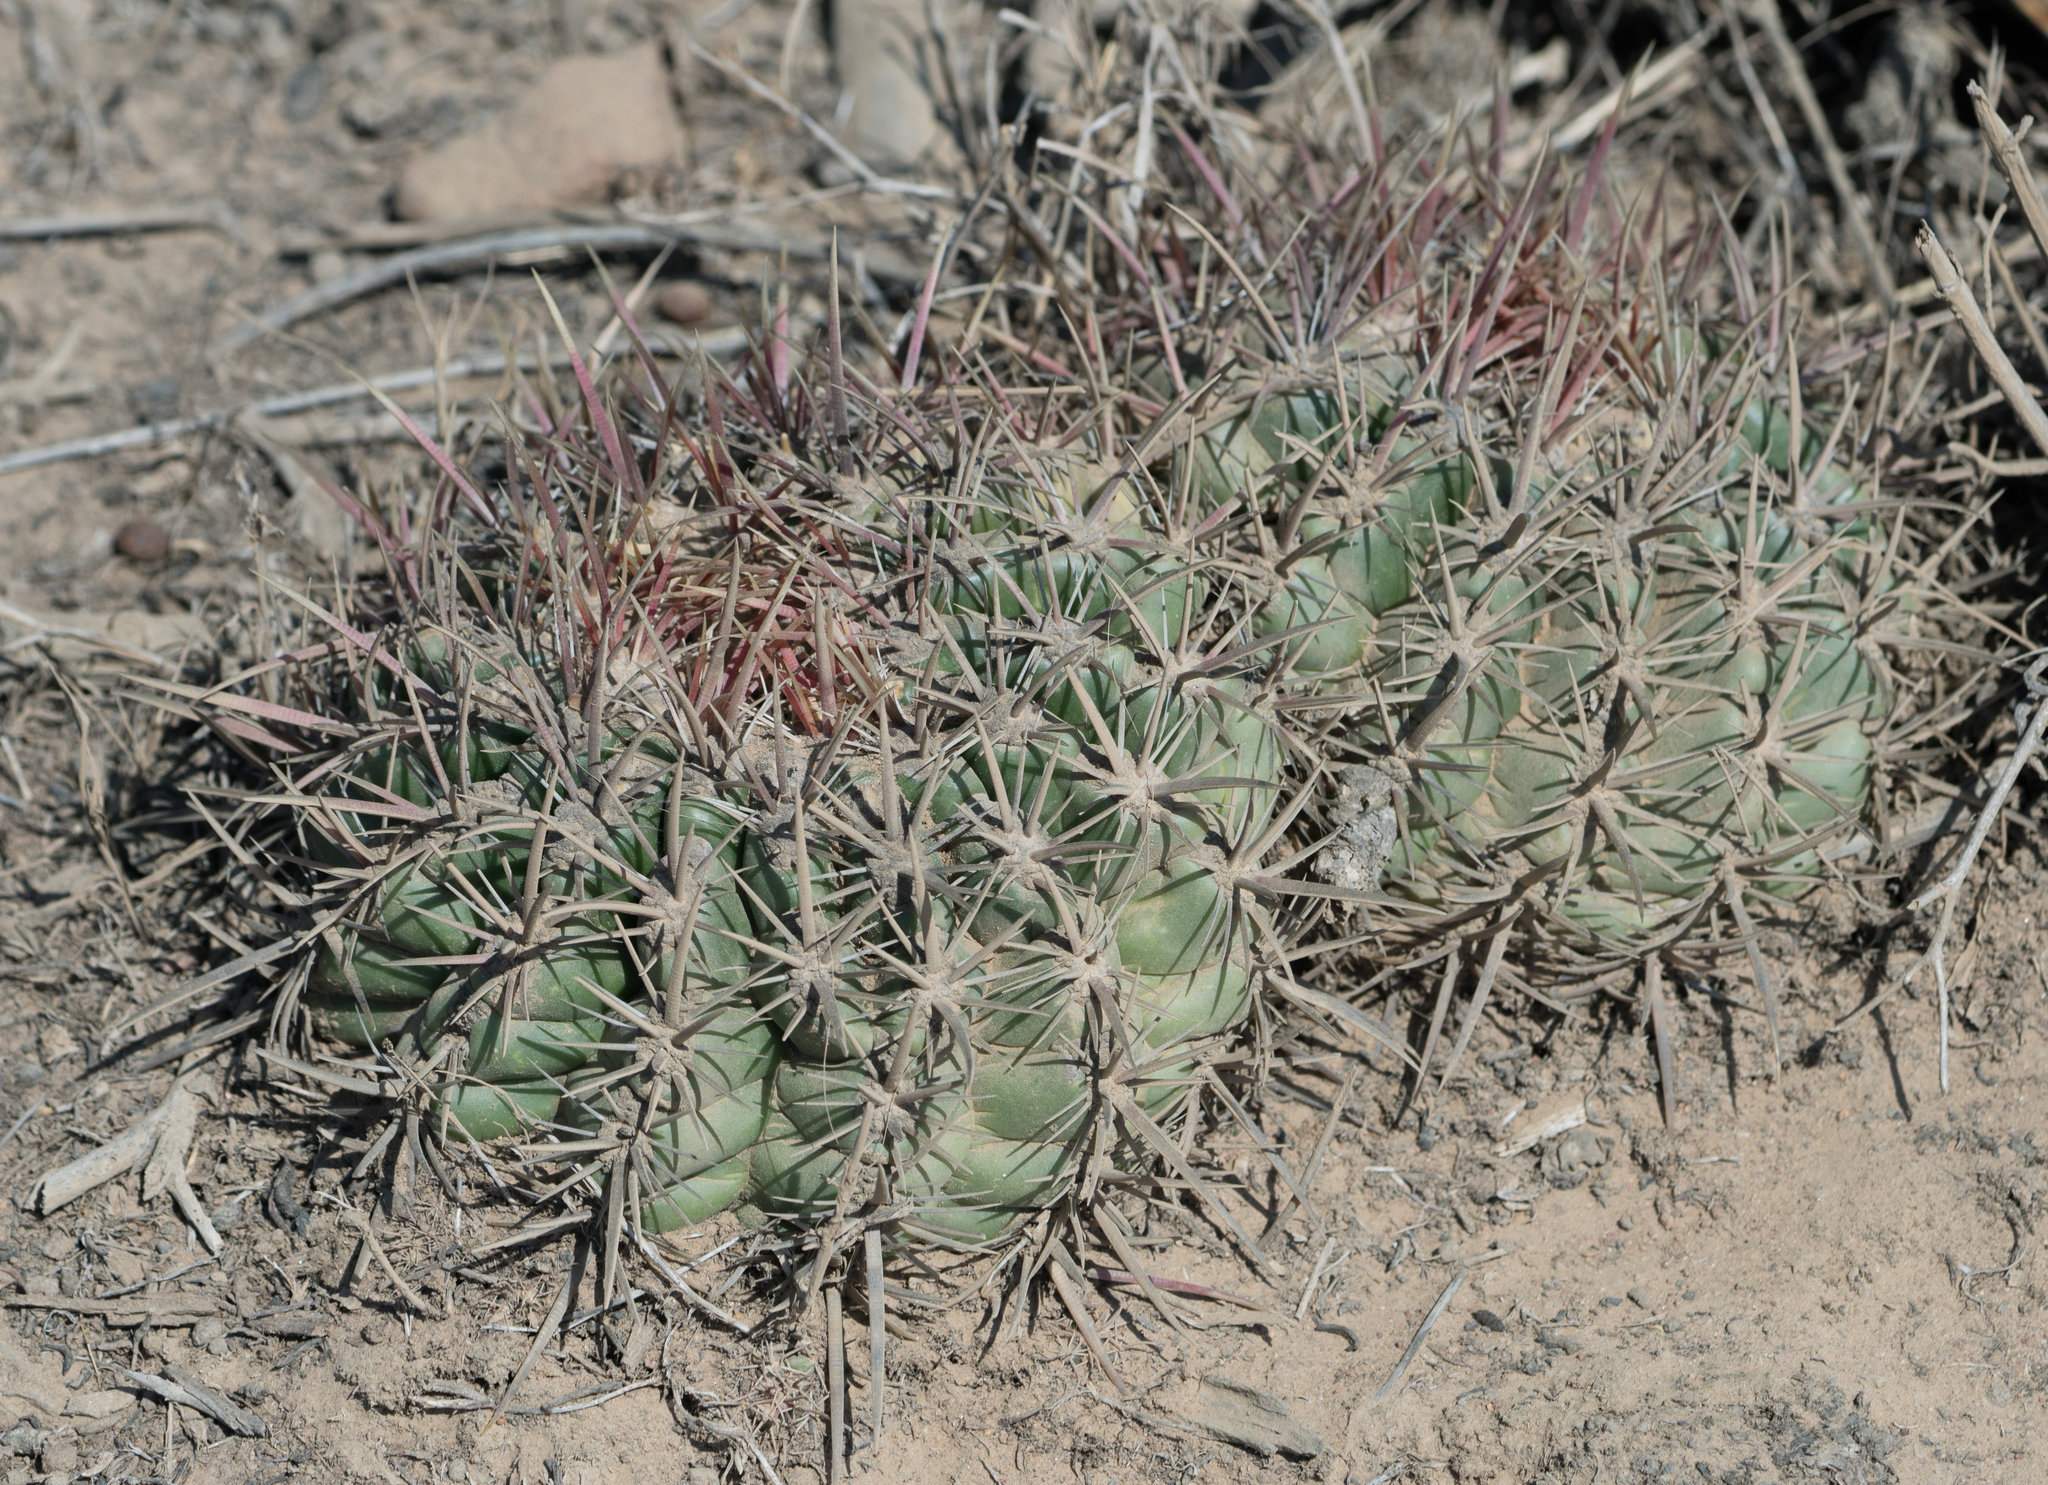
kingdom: Plantae
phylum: Tracheophyta
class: Magnoliopsida
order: Caryophyllales
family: Cactaceae
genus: Ferocactus
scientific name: Ferocactus viridescens
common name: San diego barrel cactus
